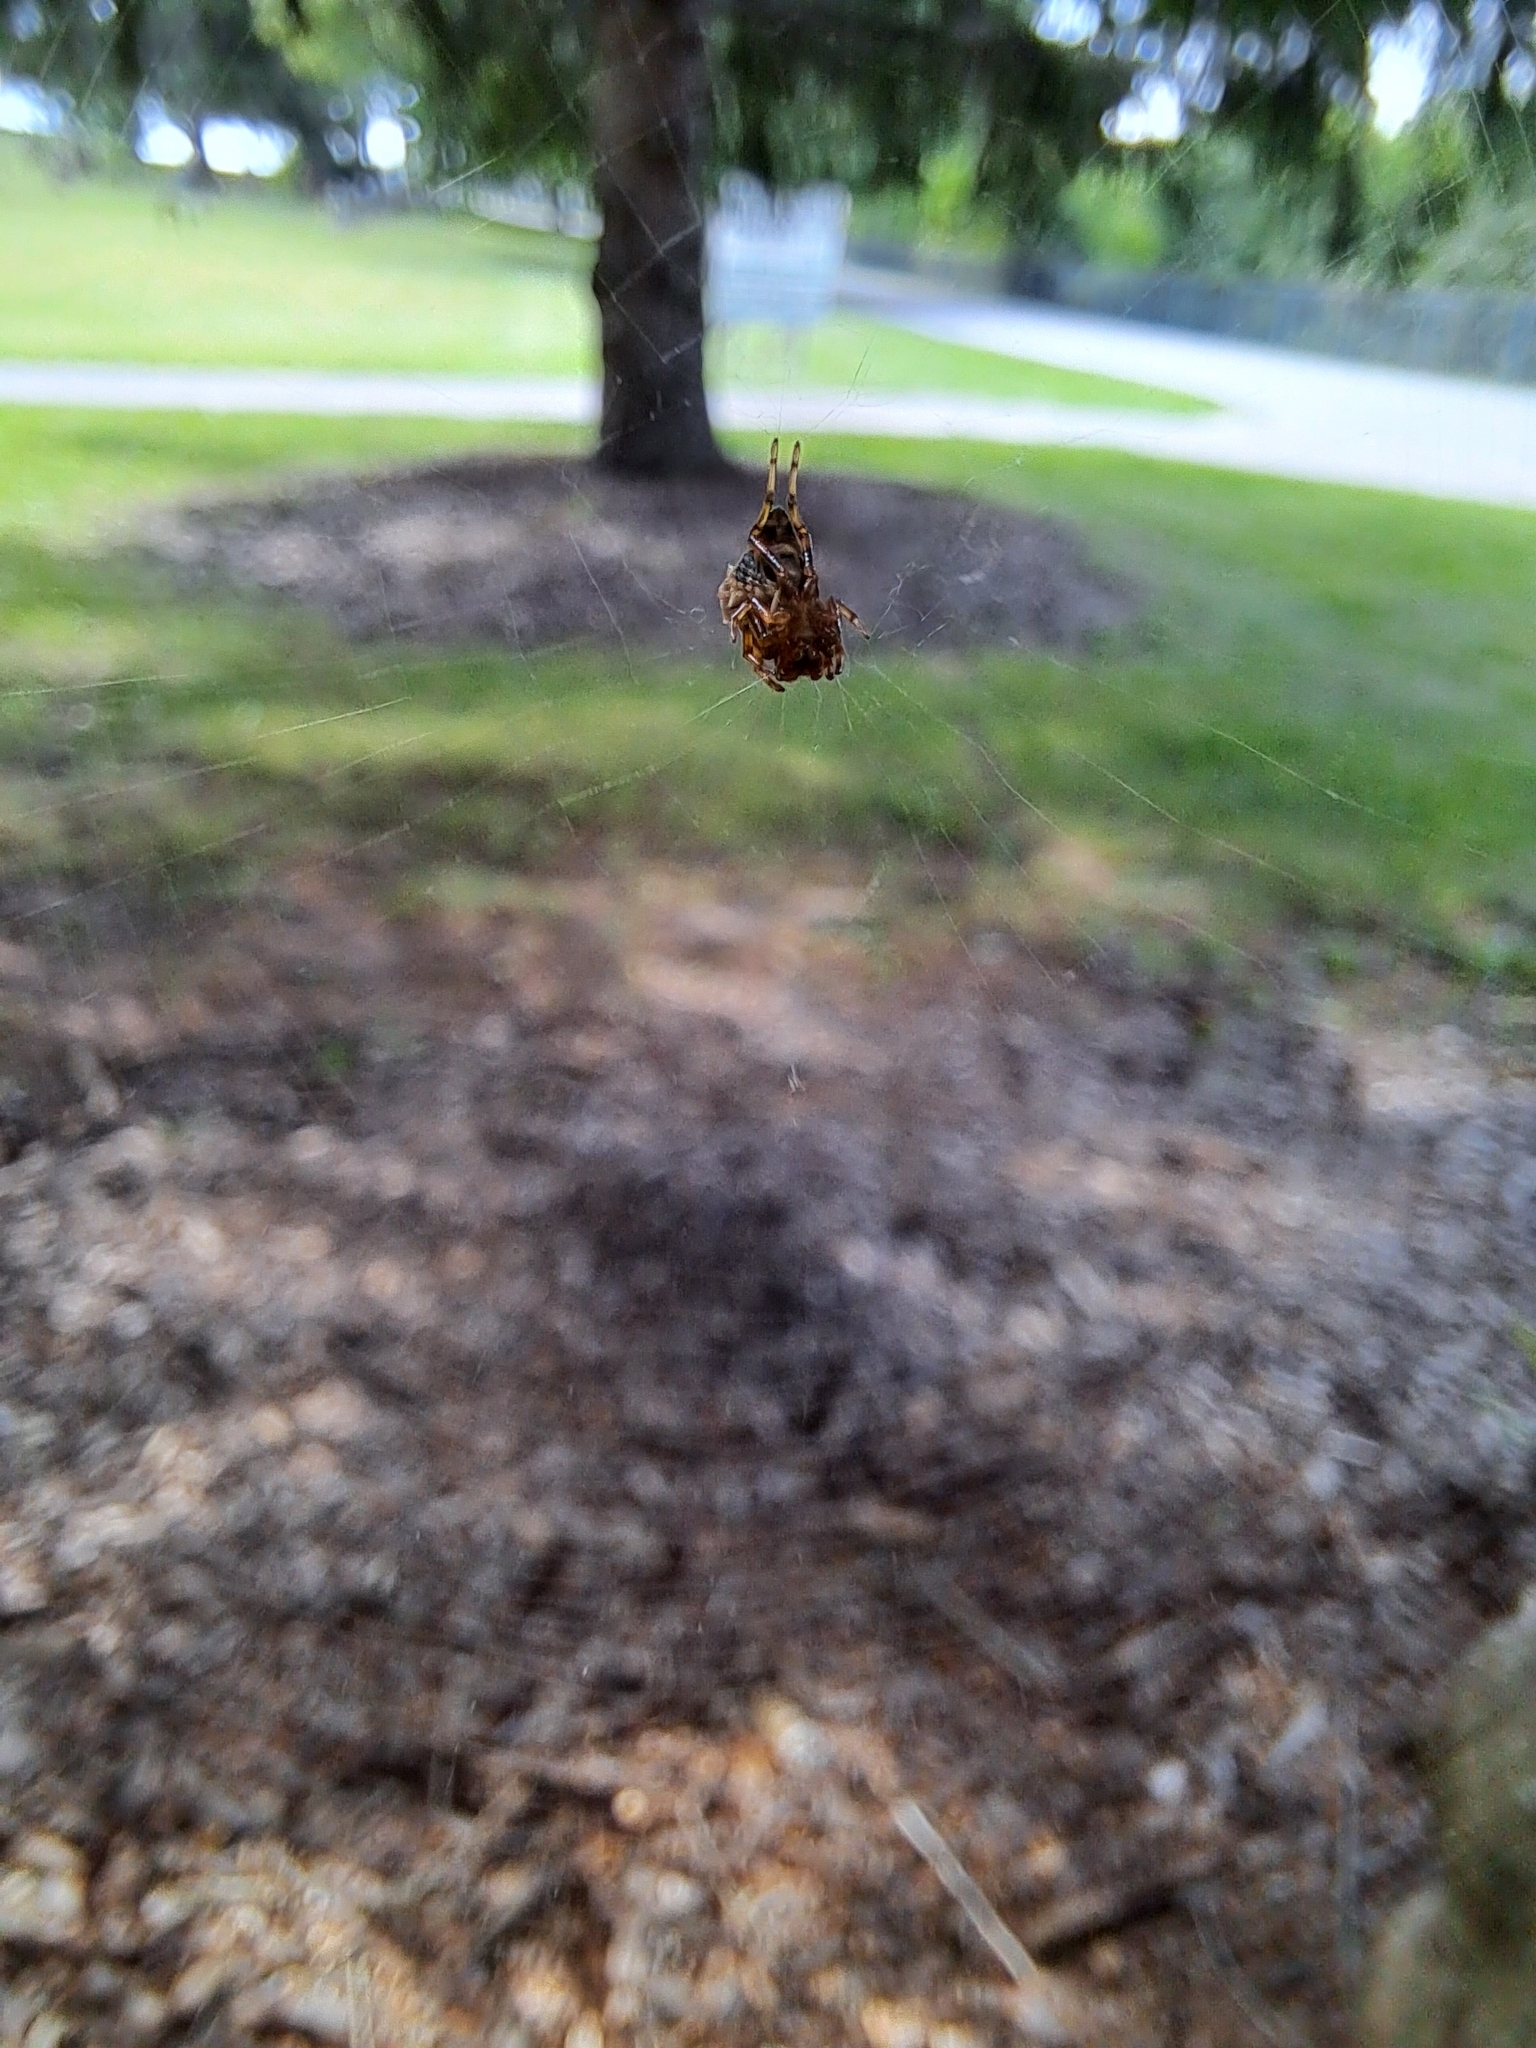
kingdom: Animalia
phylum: Arthropoda
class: Arachnida
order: Araneae
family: Araneidae
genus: Micrathena
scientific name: Micrathena gracilis
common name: Orb weavers
